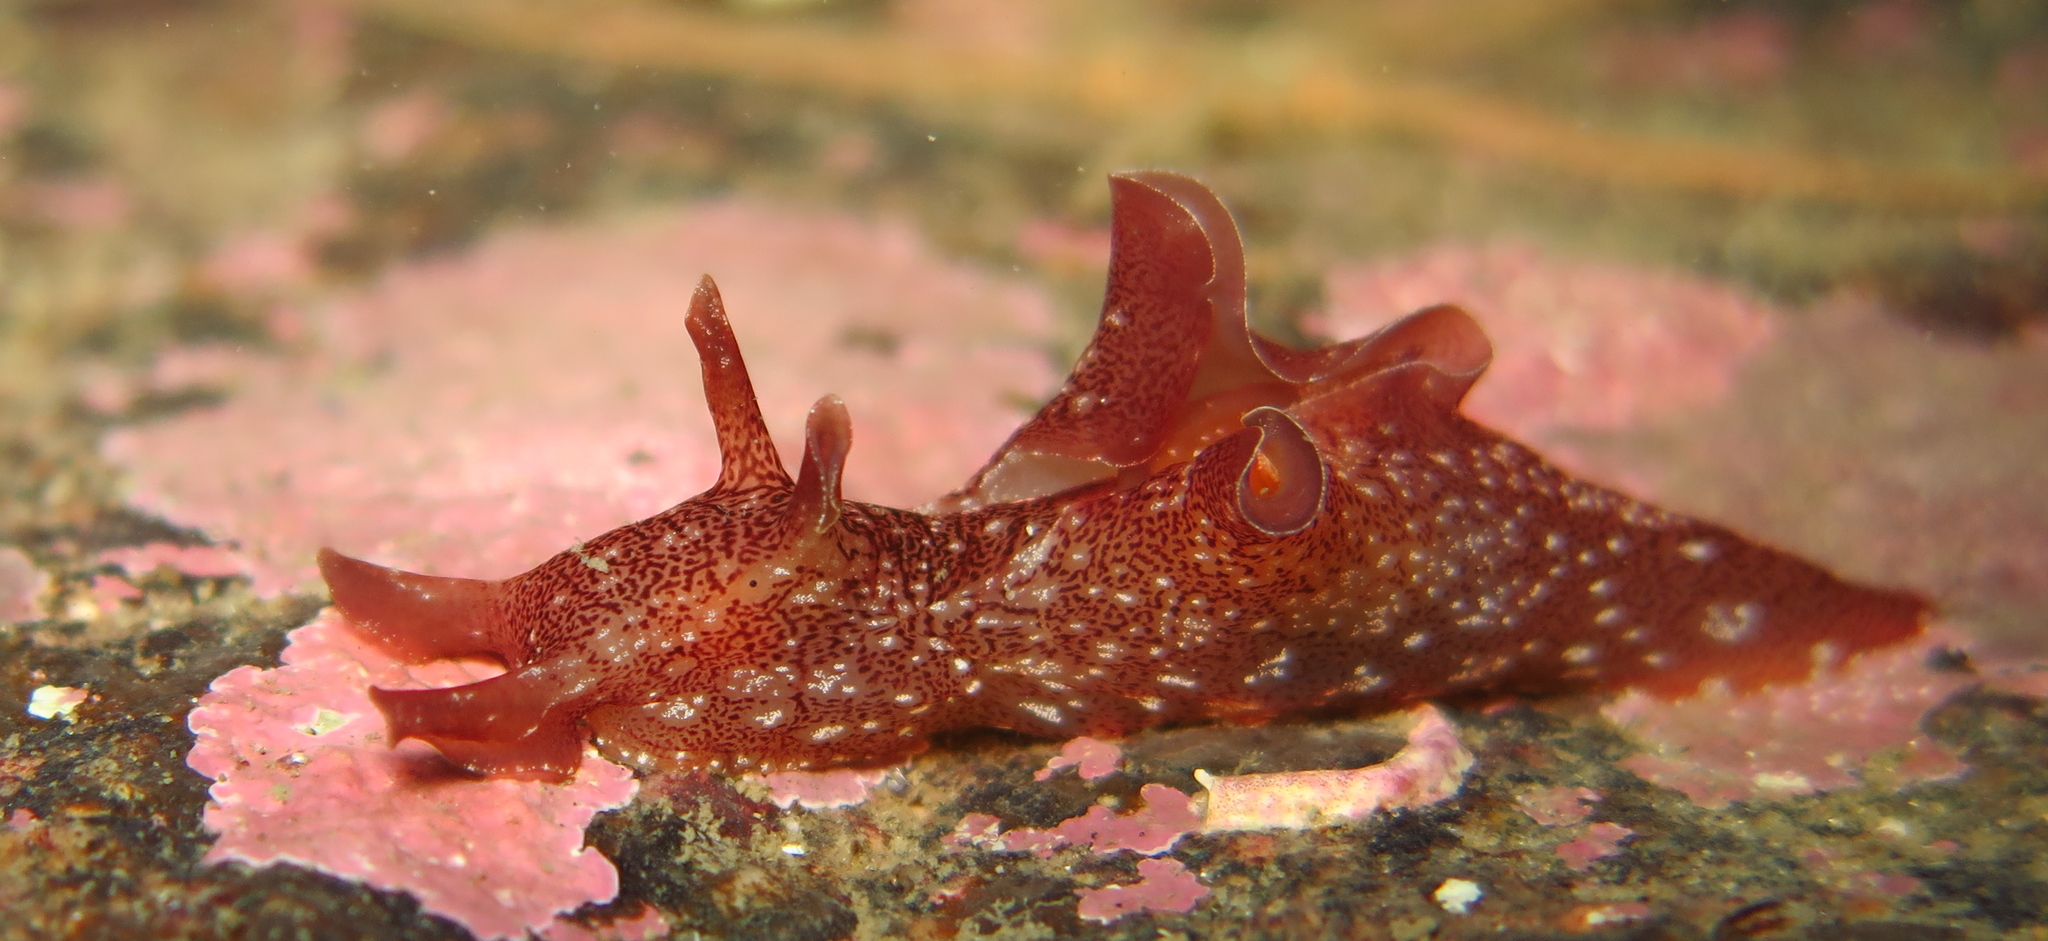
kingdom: Animalia
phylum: Mollusca
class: Gastropoda
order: Aplysiida
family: Aplysiidae
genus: Aplysia
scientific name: Aplysia punctata
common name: Common sea hare
